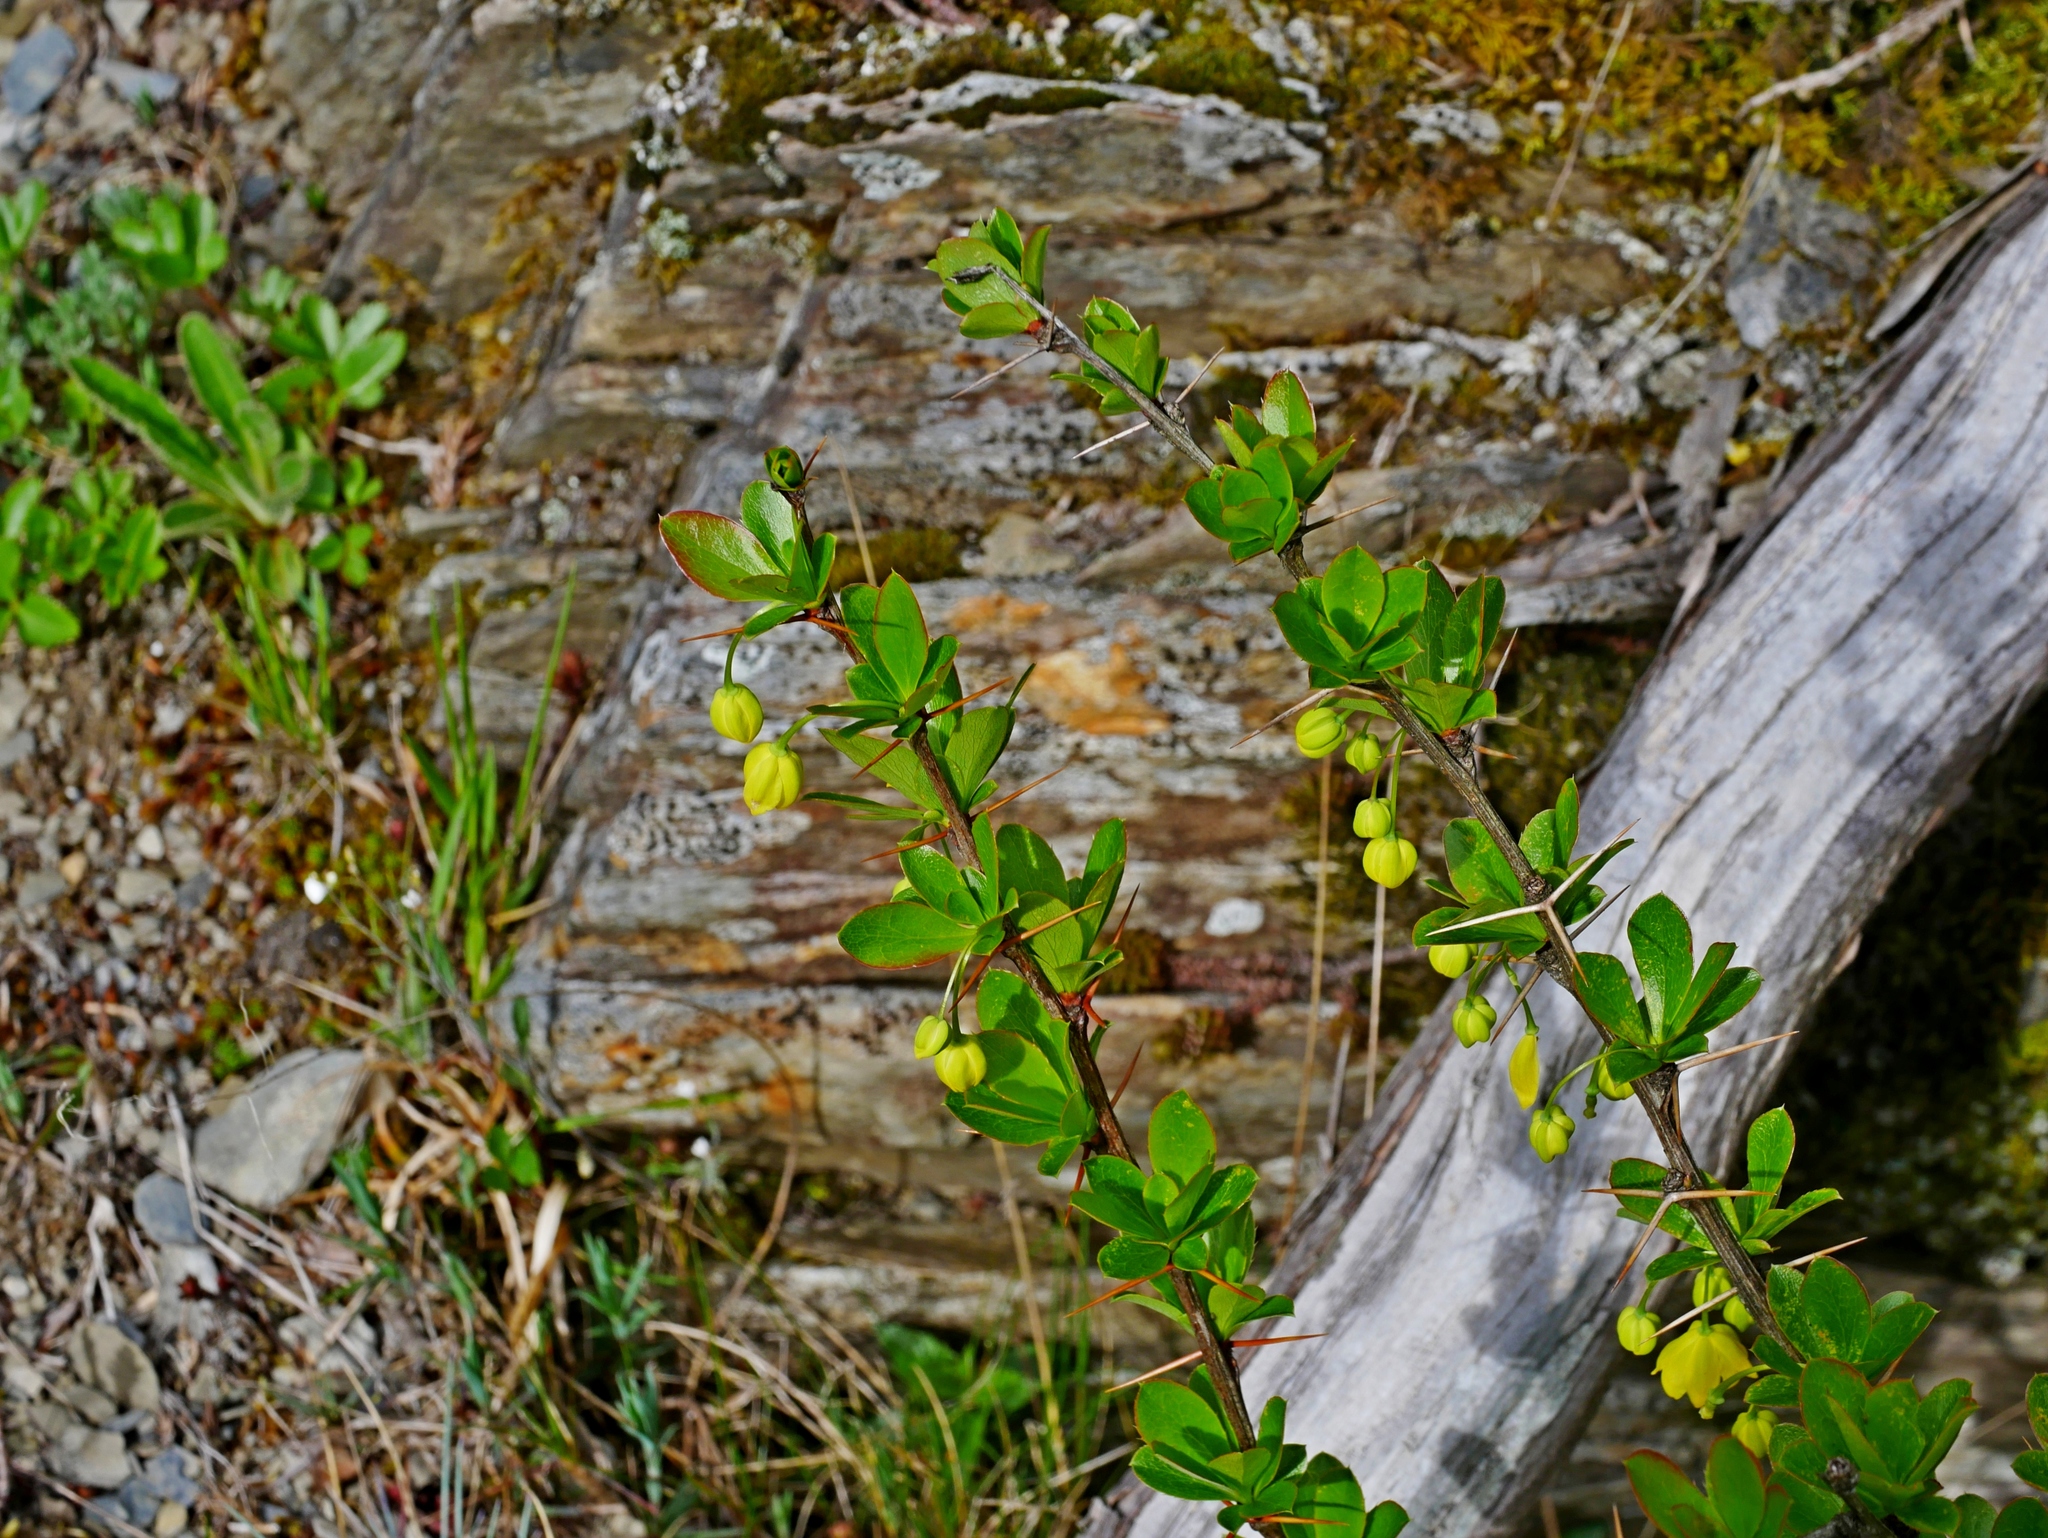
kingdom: Plantae
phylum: Tracheophyta
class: Magnoliopsida
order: Ranunculales
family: Berberidaceae
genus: Berberis
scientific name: Berberis morrisonensis
